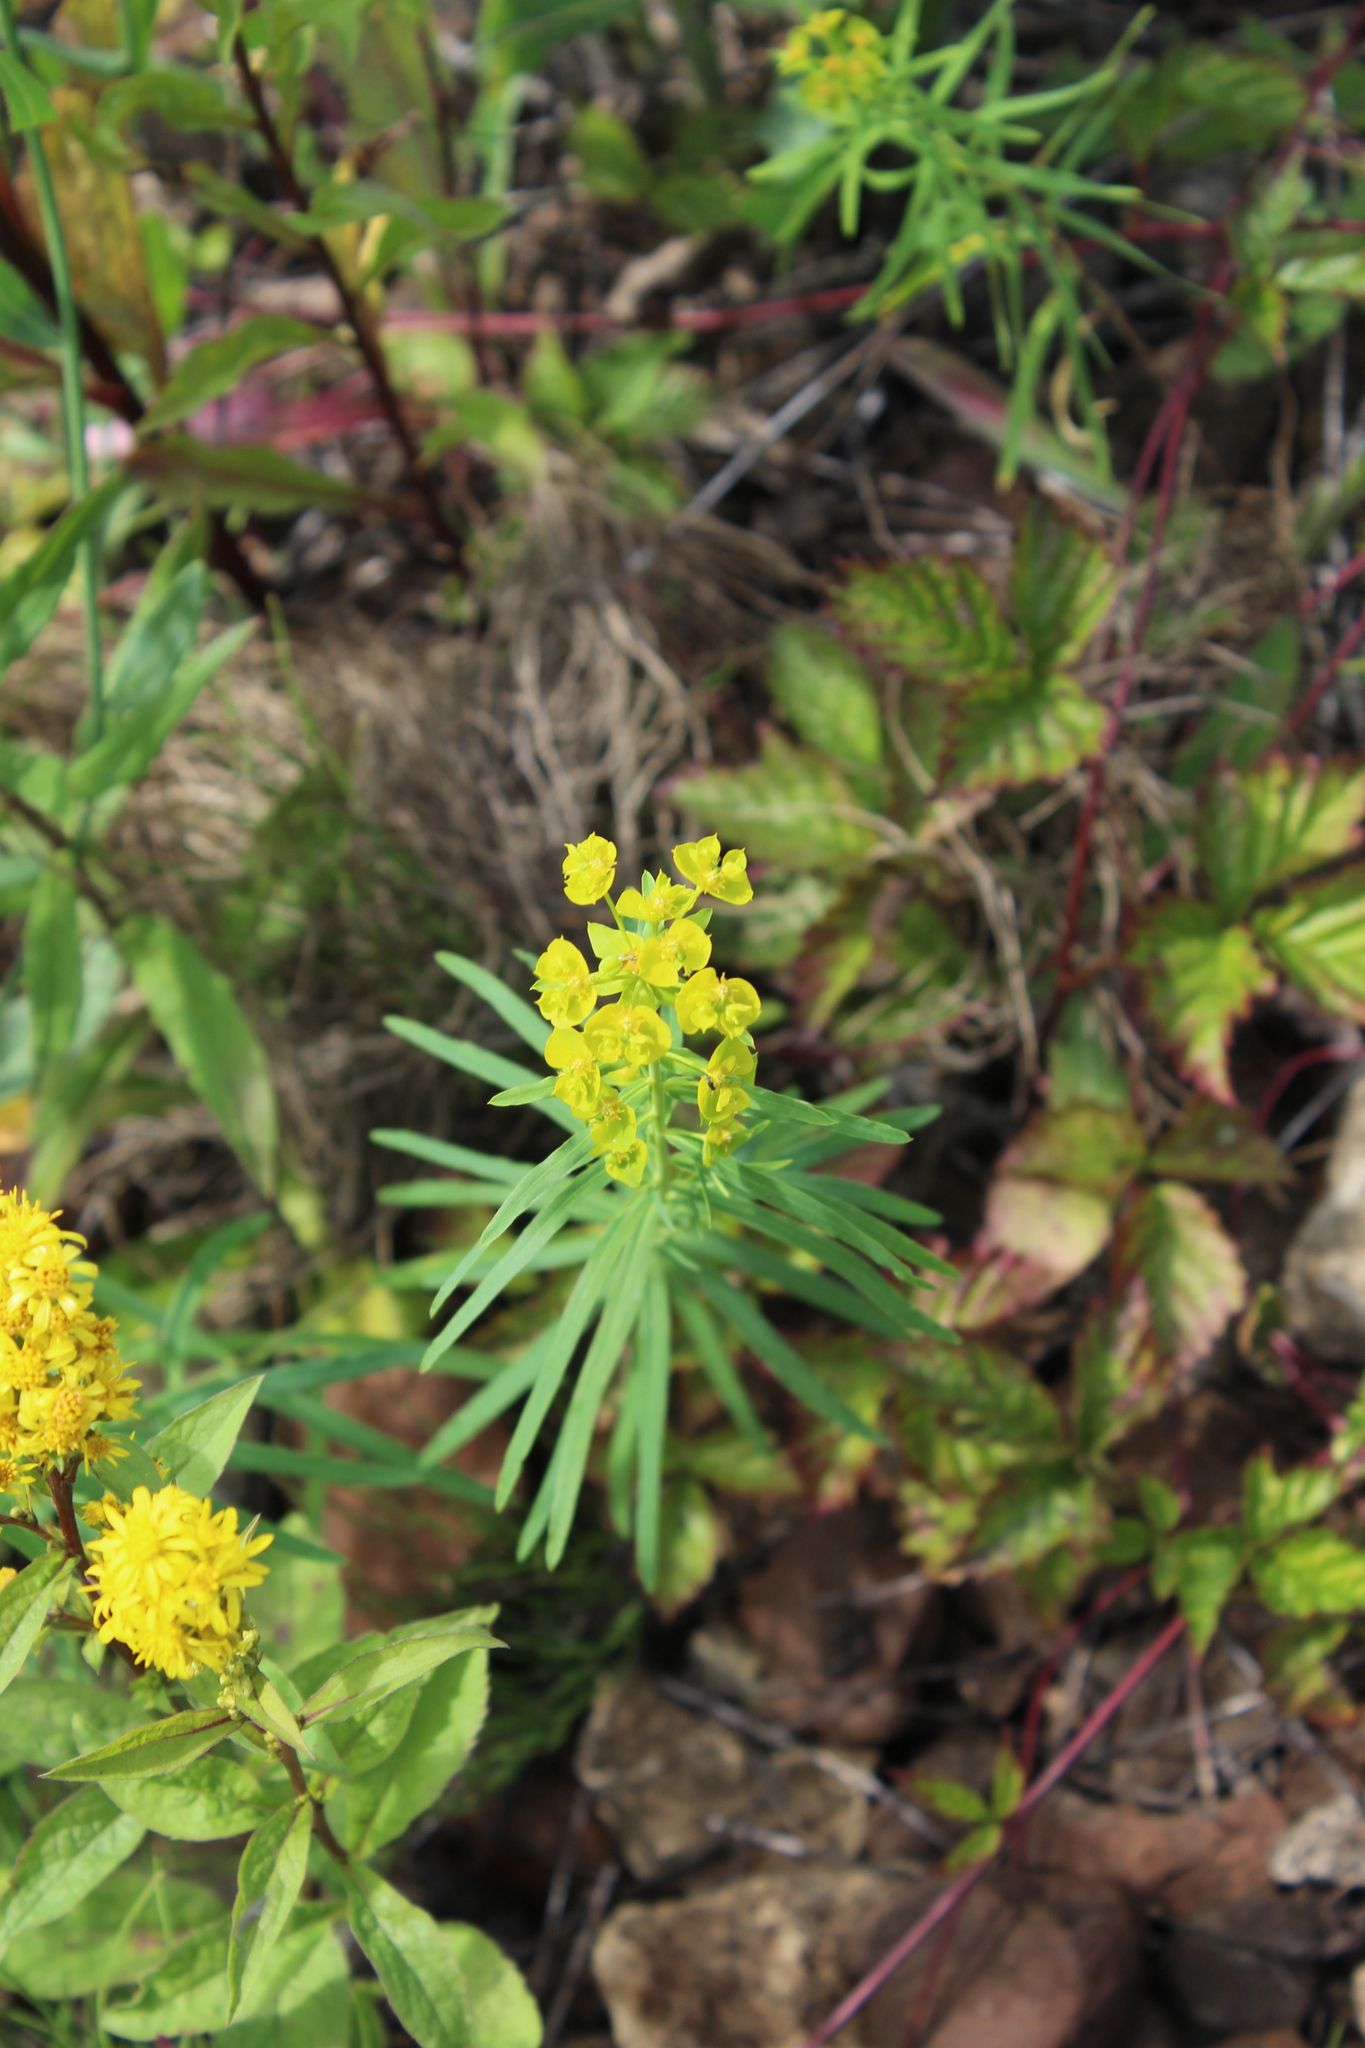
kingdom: Plantae
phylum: Tracheophyta
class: Magnoliopsida
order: Malpighiales
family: Euphorbiaceae
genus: Euphorbia
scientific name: Euphorbia virgata
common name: Leafy spurge
